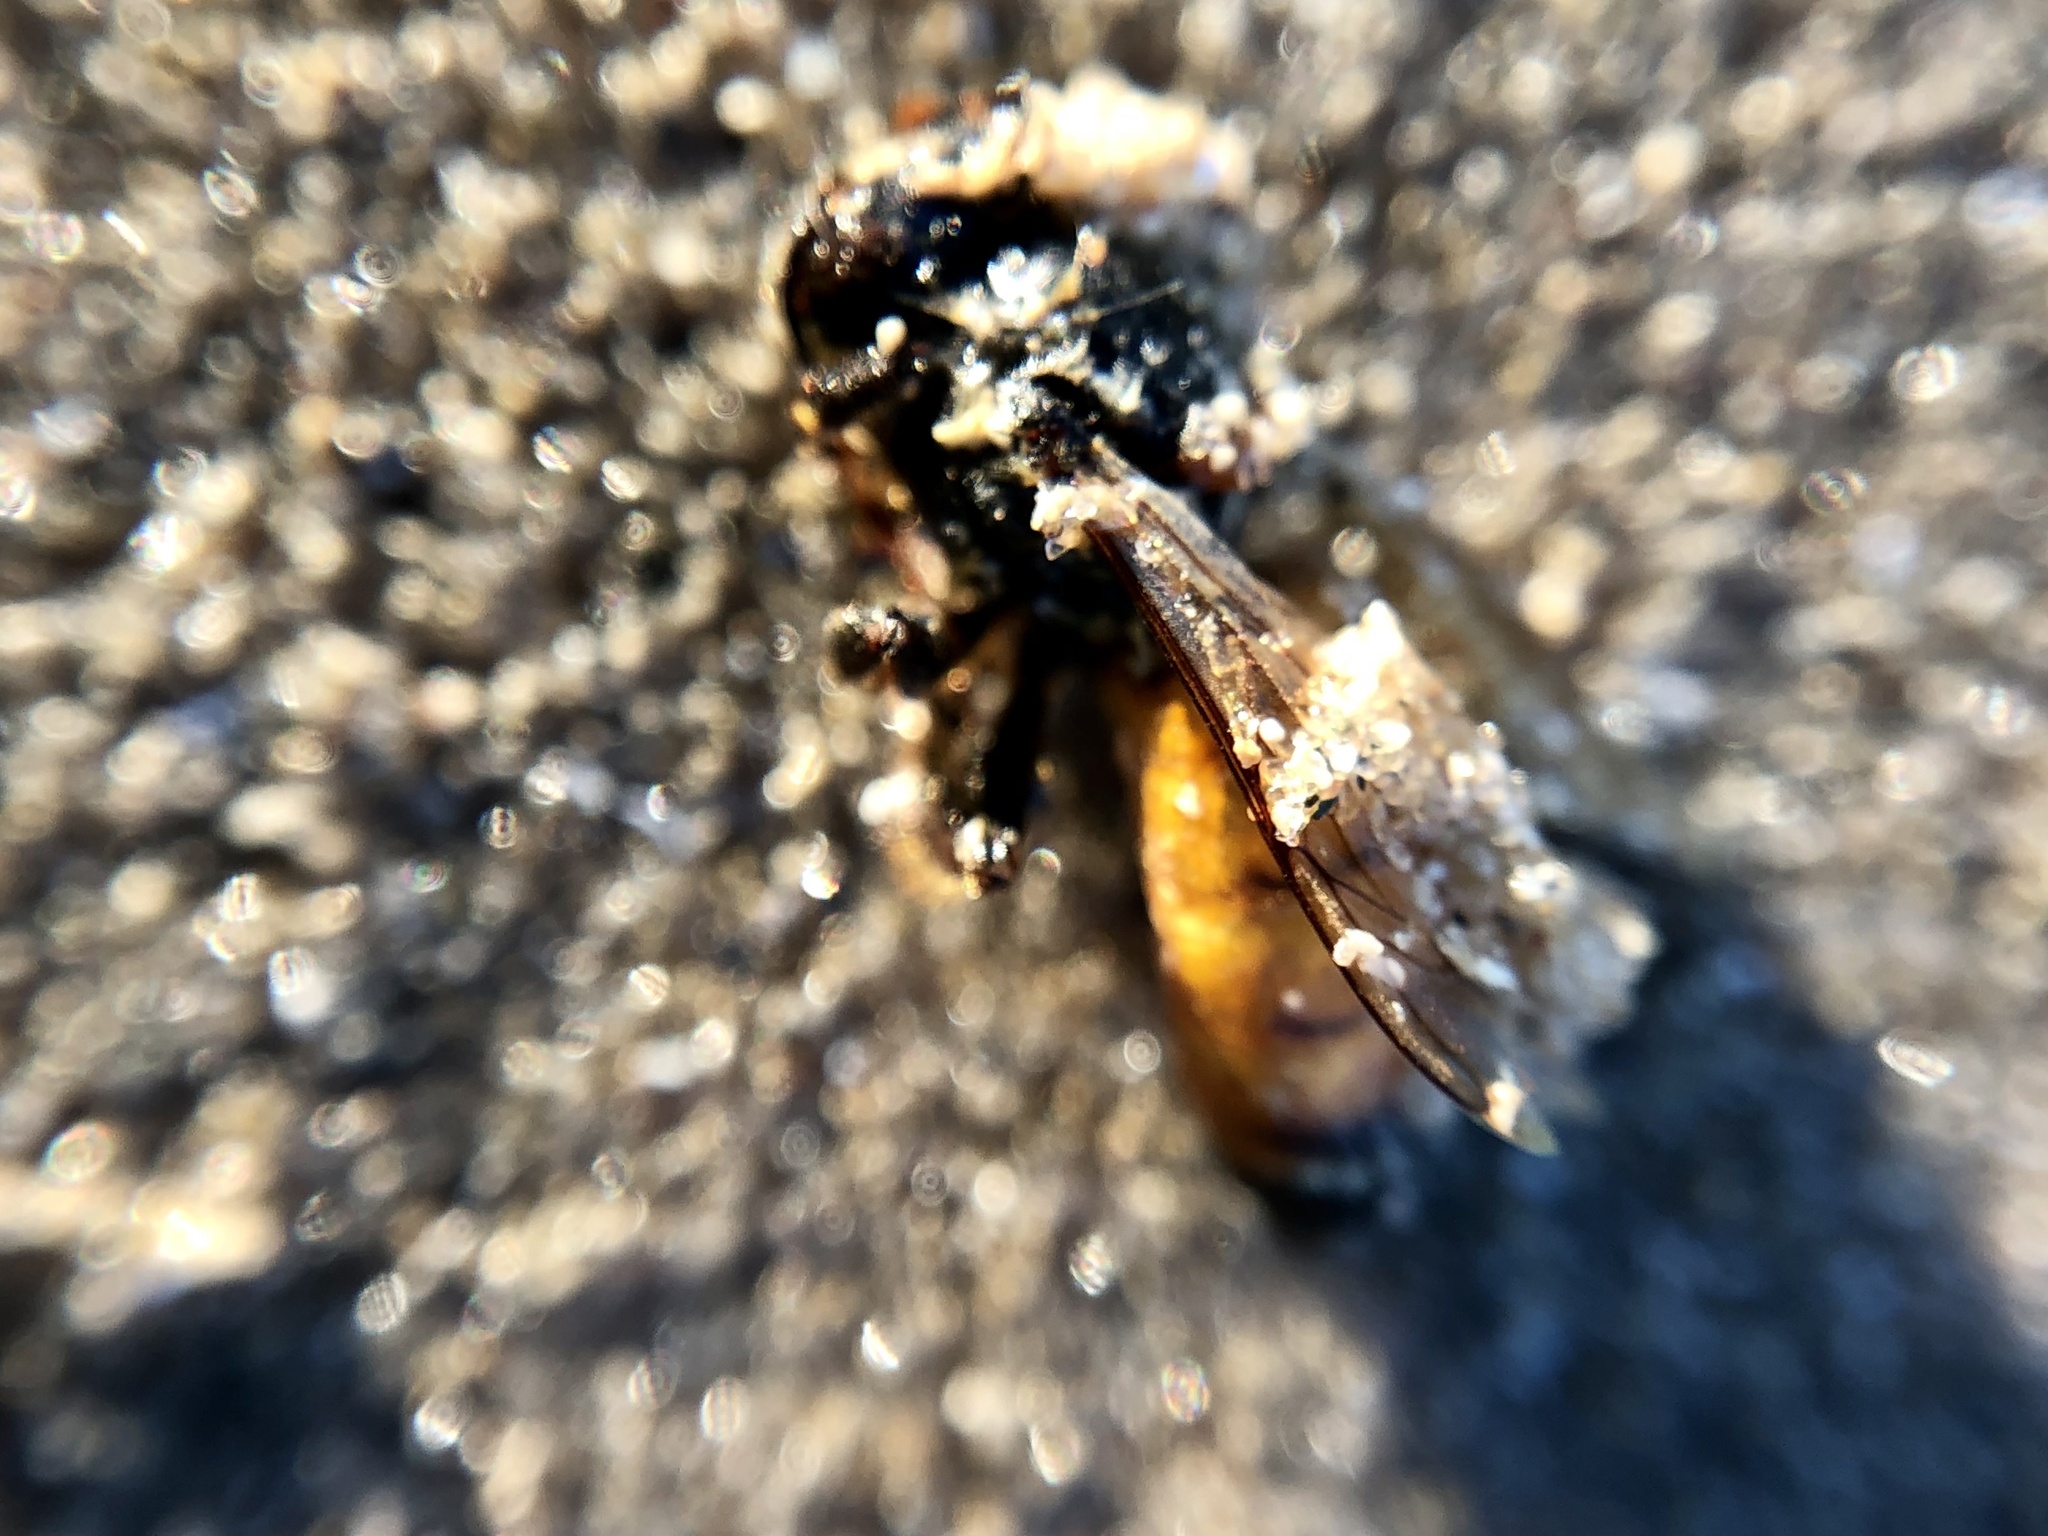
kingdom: Animalia
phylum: Arthropoda
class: Insecta
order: Hymenoptera
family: Apidae
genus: Apis
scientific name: Apis mellifera
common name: Honey bee
